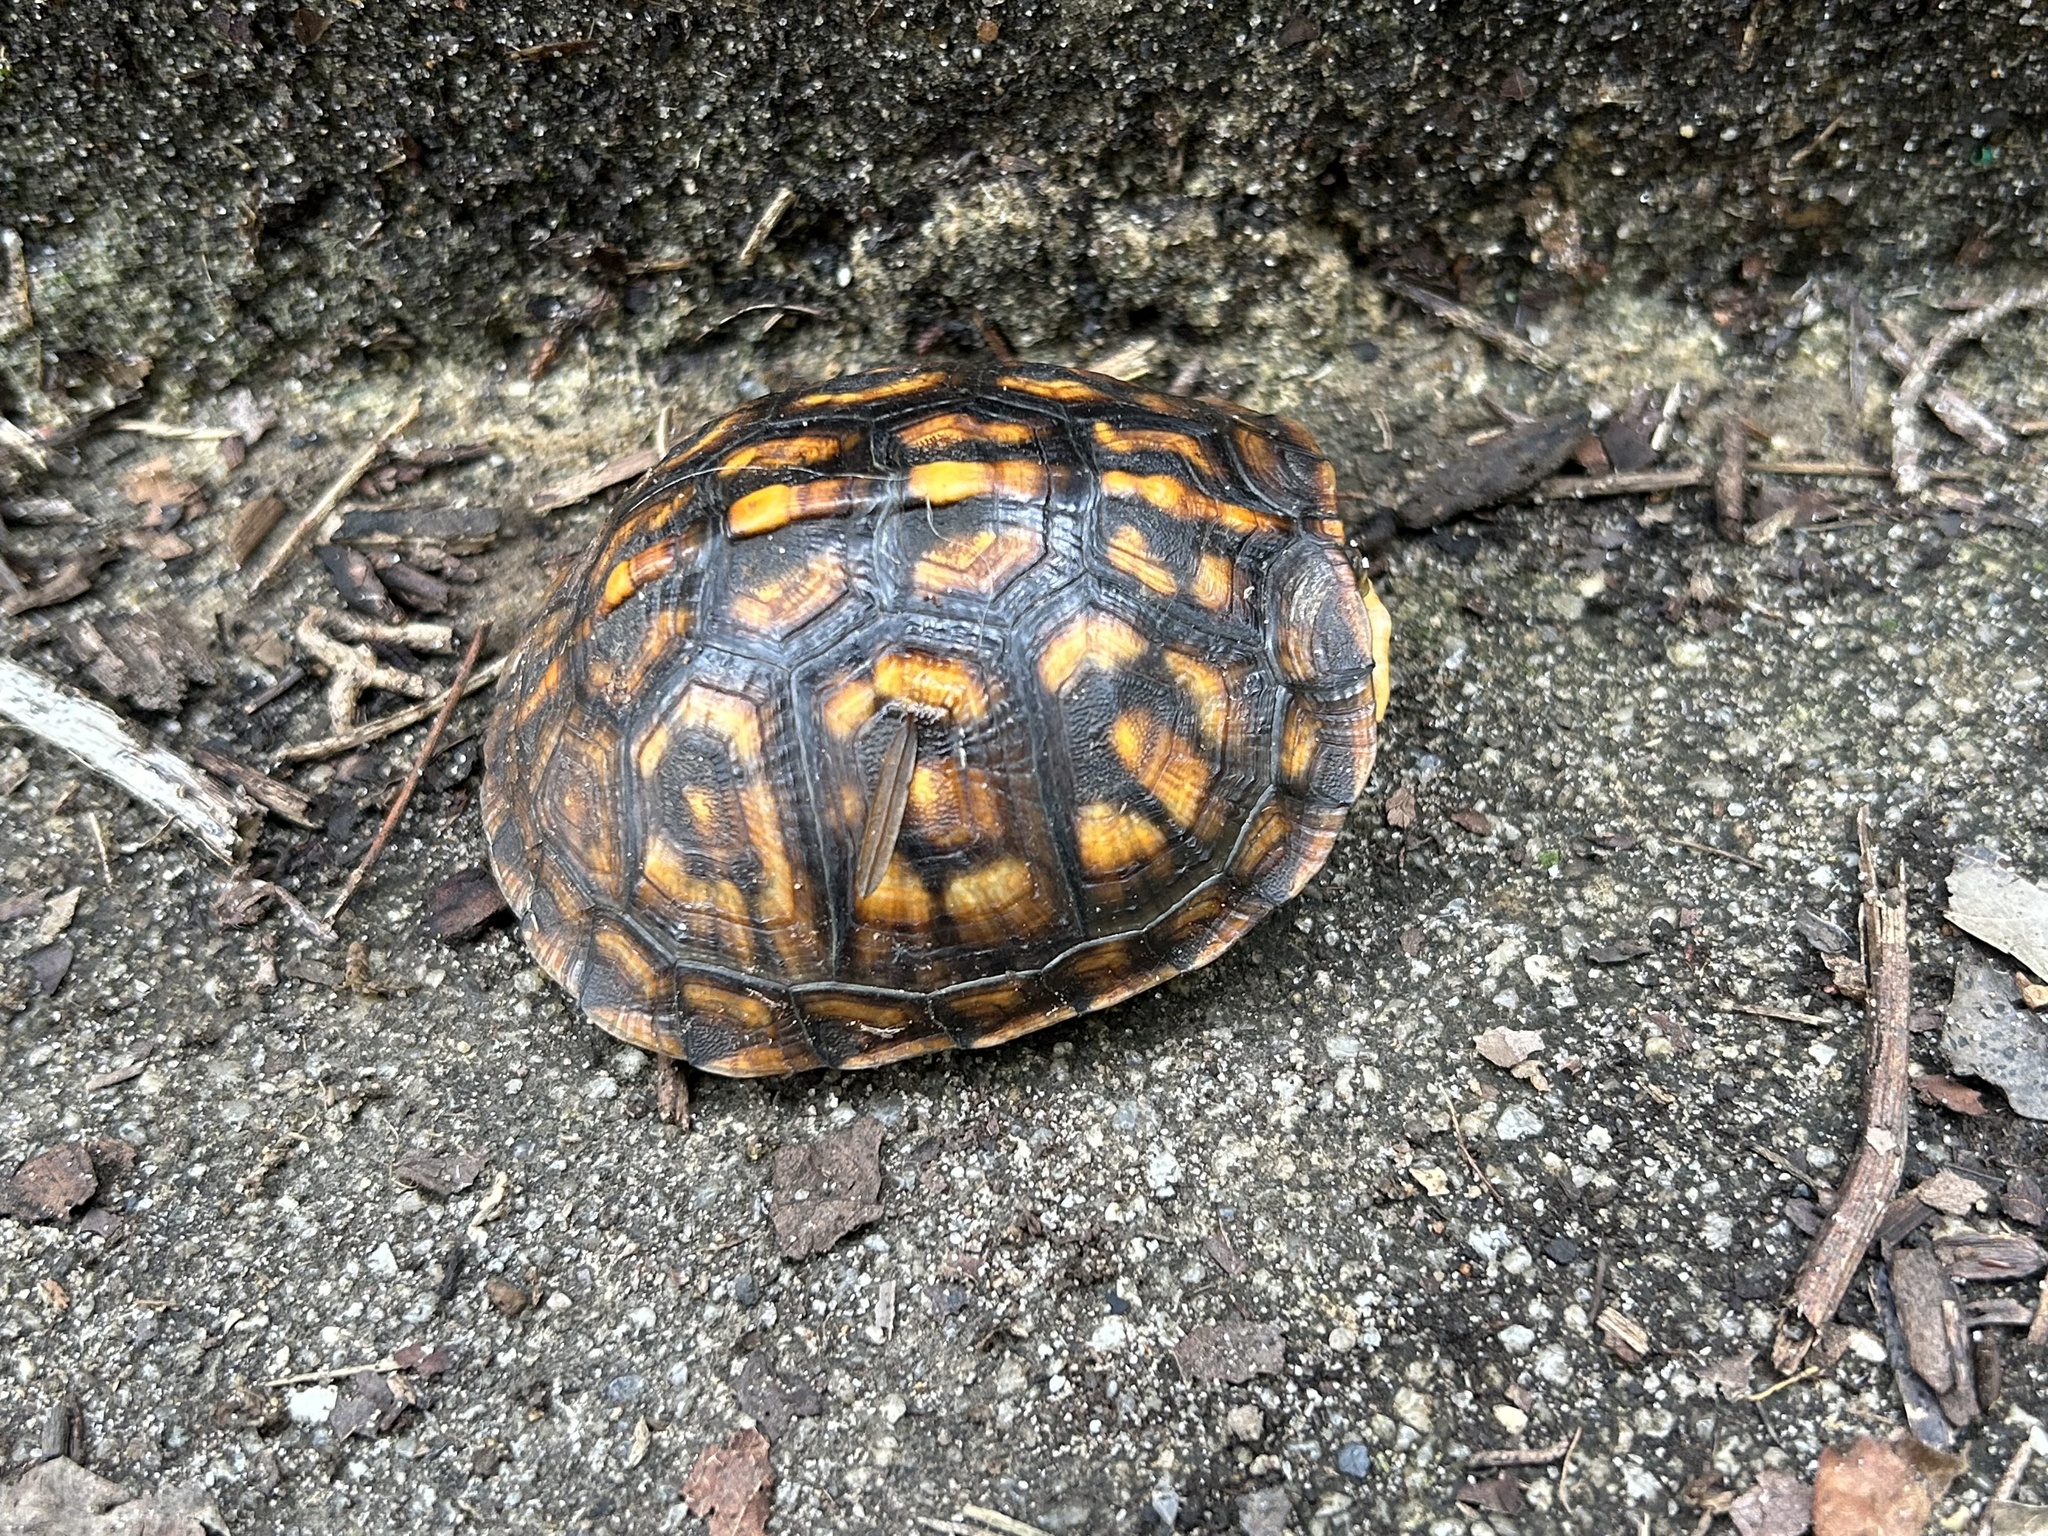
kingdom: Animalia
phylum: Chordata
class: Testudines
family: Emydidae
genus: Terrapene
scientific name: Terrapene carolina
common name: Common box turtle
